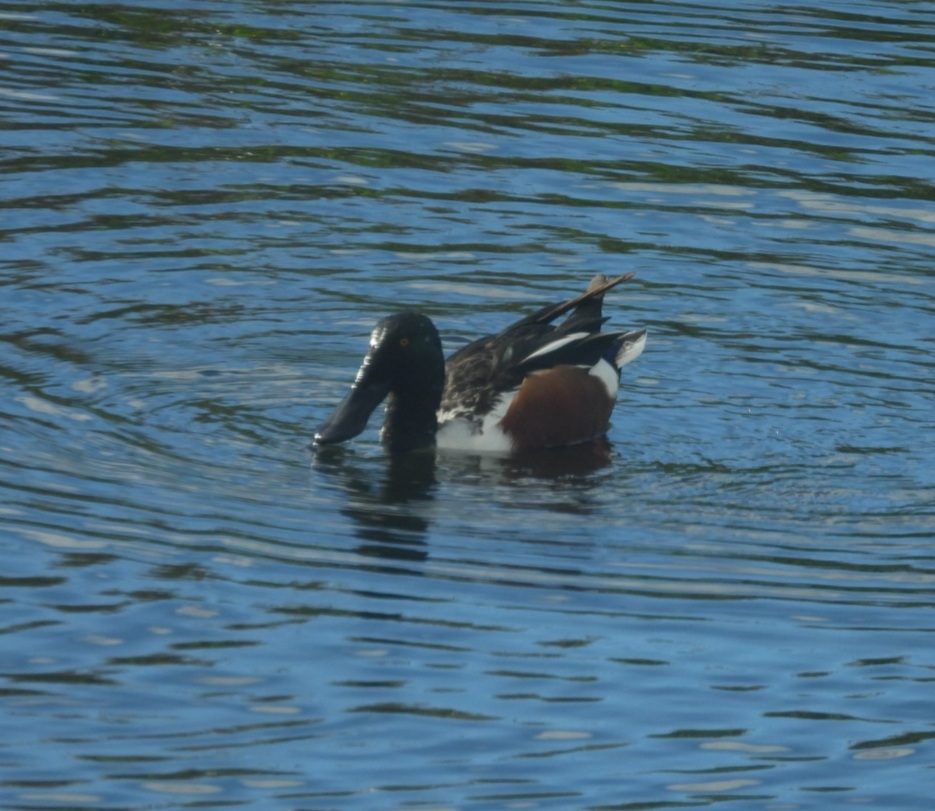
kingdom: Animalia
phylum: Chordata
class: Aves
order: Anseriformes
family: Anatidae
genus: Spatula
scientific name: Spatula clypeata
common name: Northern shoveler
